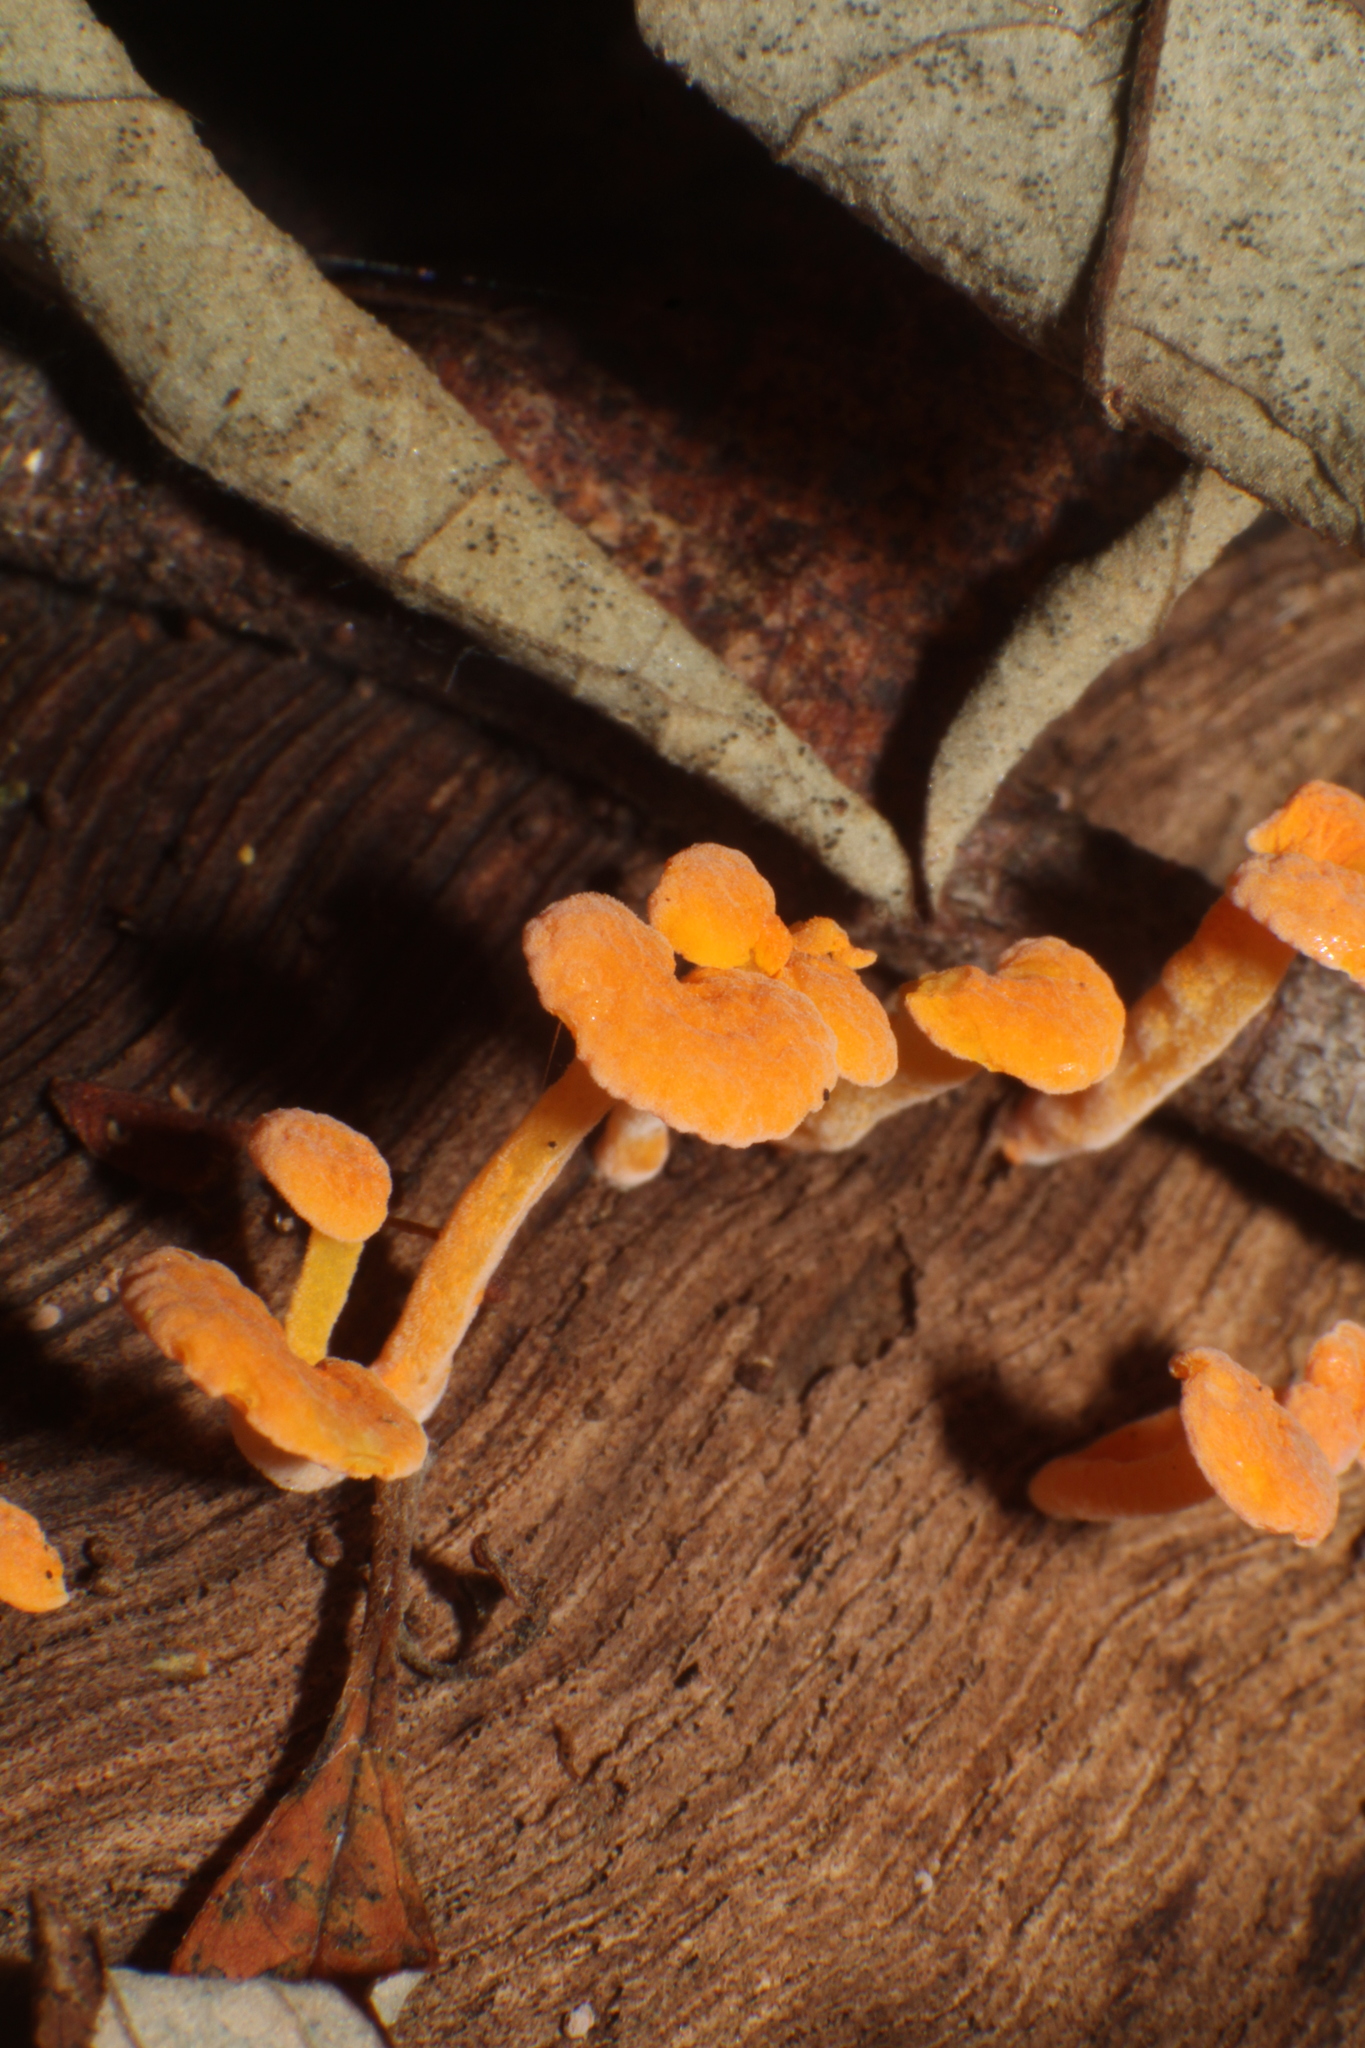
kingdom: Fungi
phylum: Basidiomycota
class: Agaricomycetes
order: Agaricales
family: Mycenaceae
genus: Favolaschia
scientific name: Favolaschia claudopus
